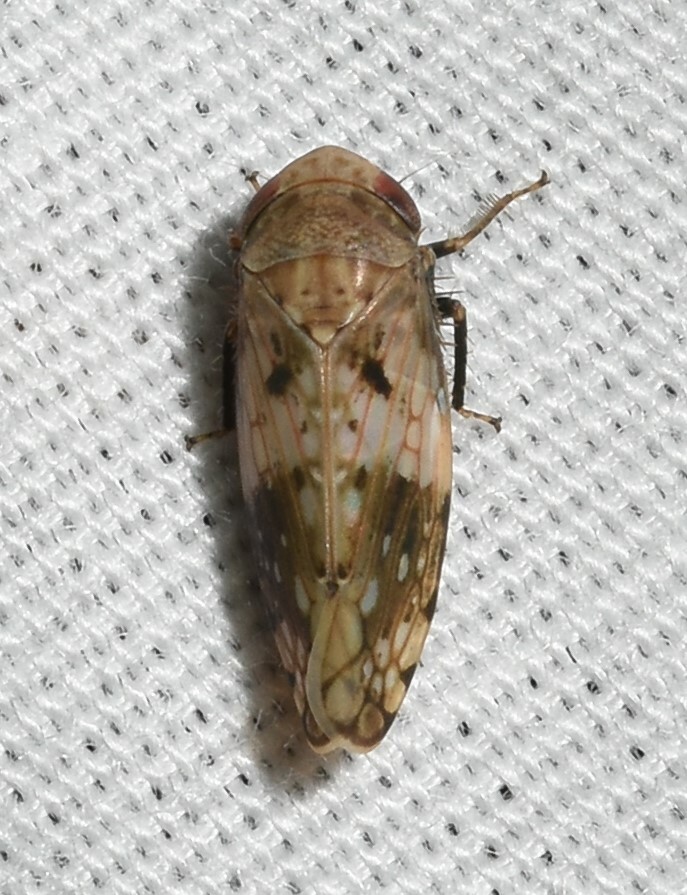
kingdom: Animalia
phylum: Arthropoda
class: Insecta
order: Hemiptera
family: Cicadellidae
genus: Menosoma
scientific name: Menosoma cinctum
